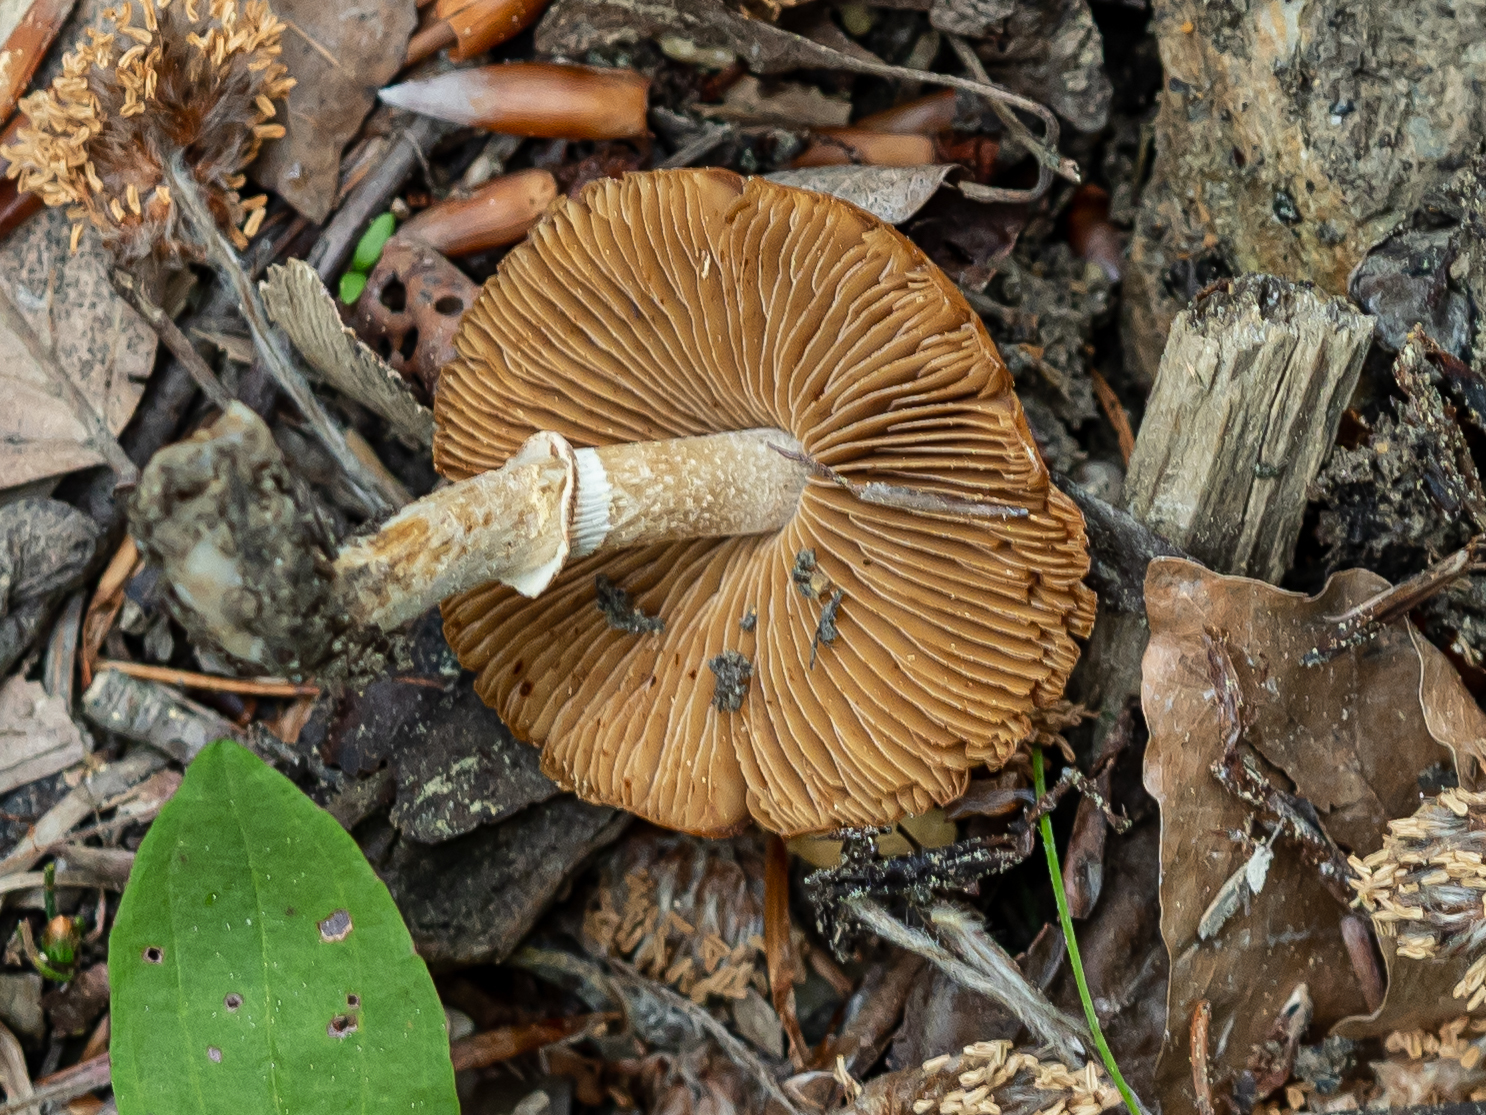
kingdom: Fungi
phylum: Basidiomycota
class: Agaricomycetes
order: Agaricales
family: Bolbitiaceae
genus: Conocybe
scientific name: Conocybe aporos
